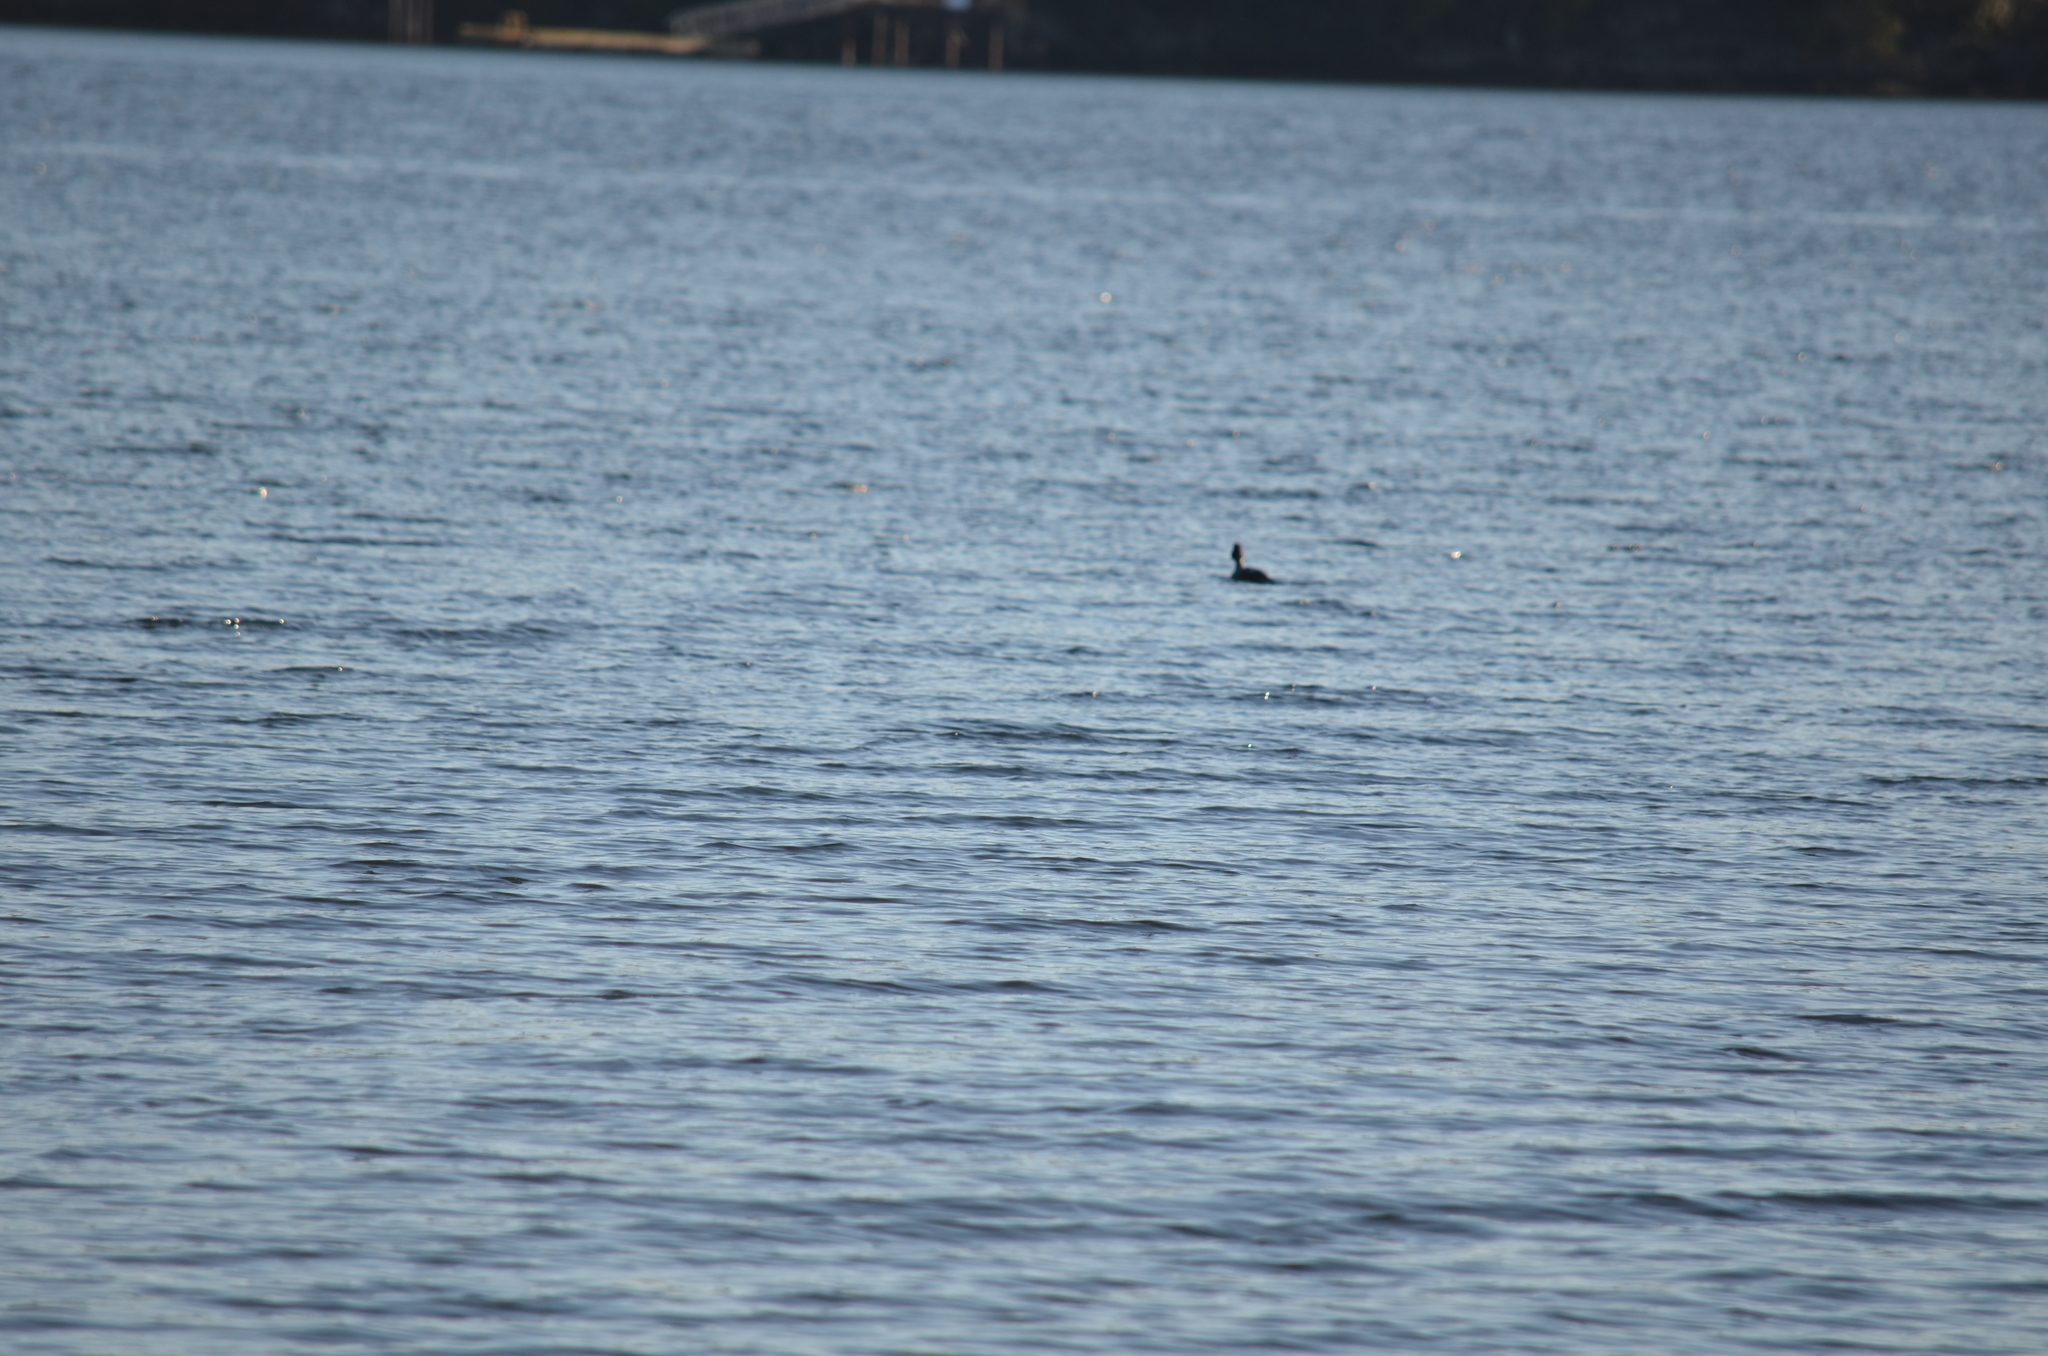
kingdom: Animalia
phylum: Chordata
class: Aves
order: Anseriformes
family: Anatidae
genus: Bucephala
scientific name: Bucephala clangula
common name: Common goldeneye
